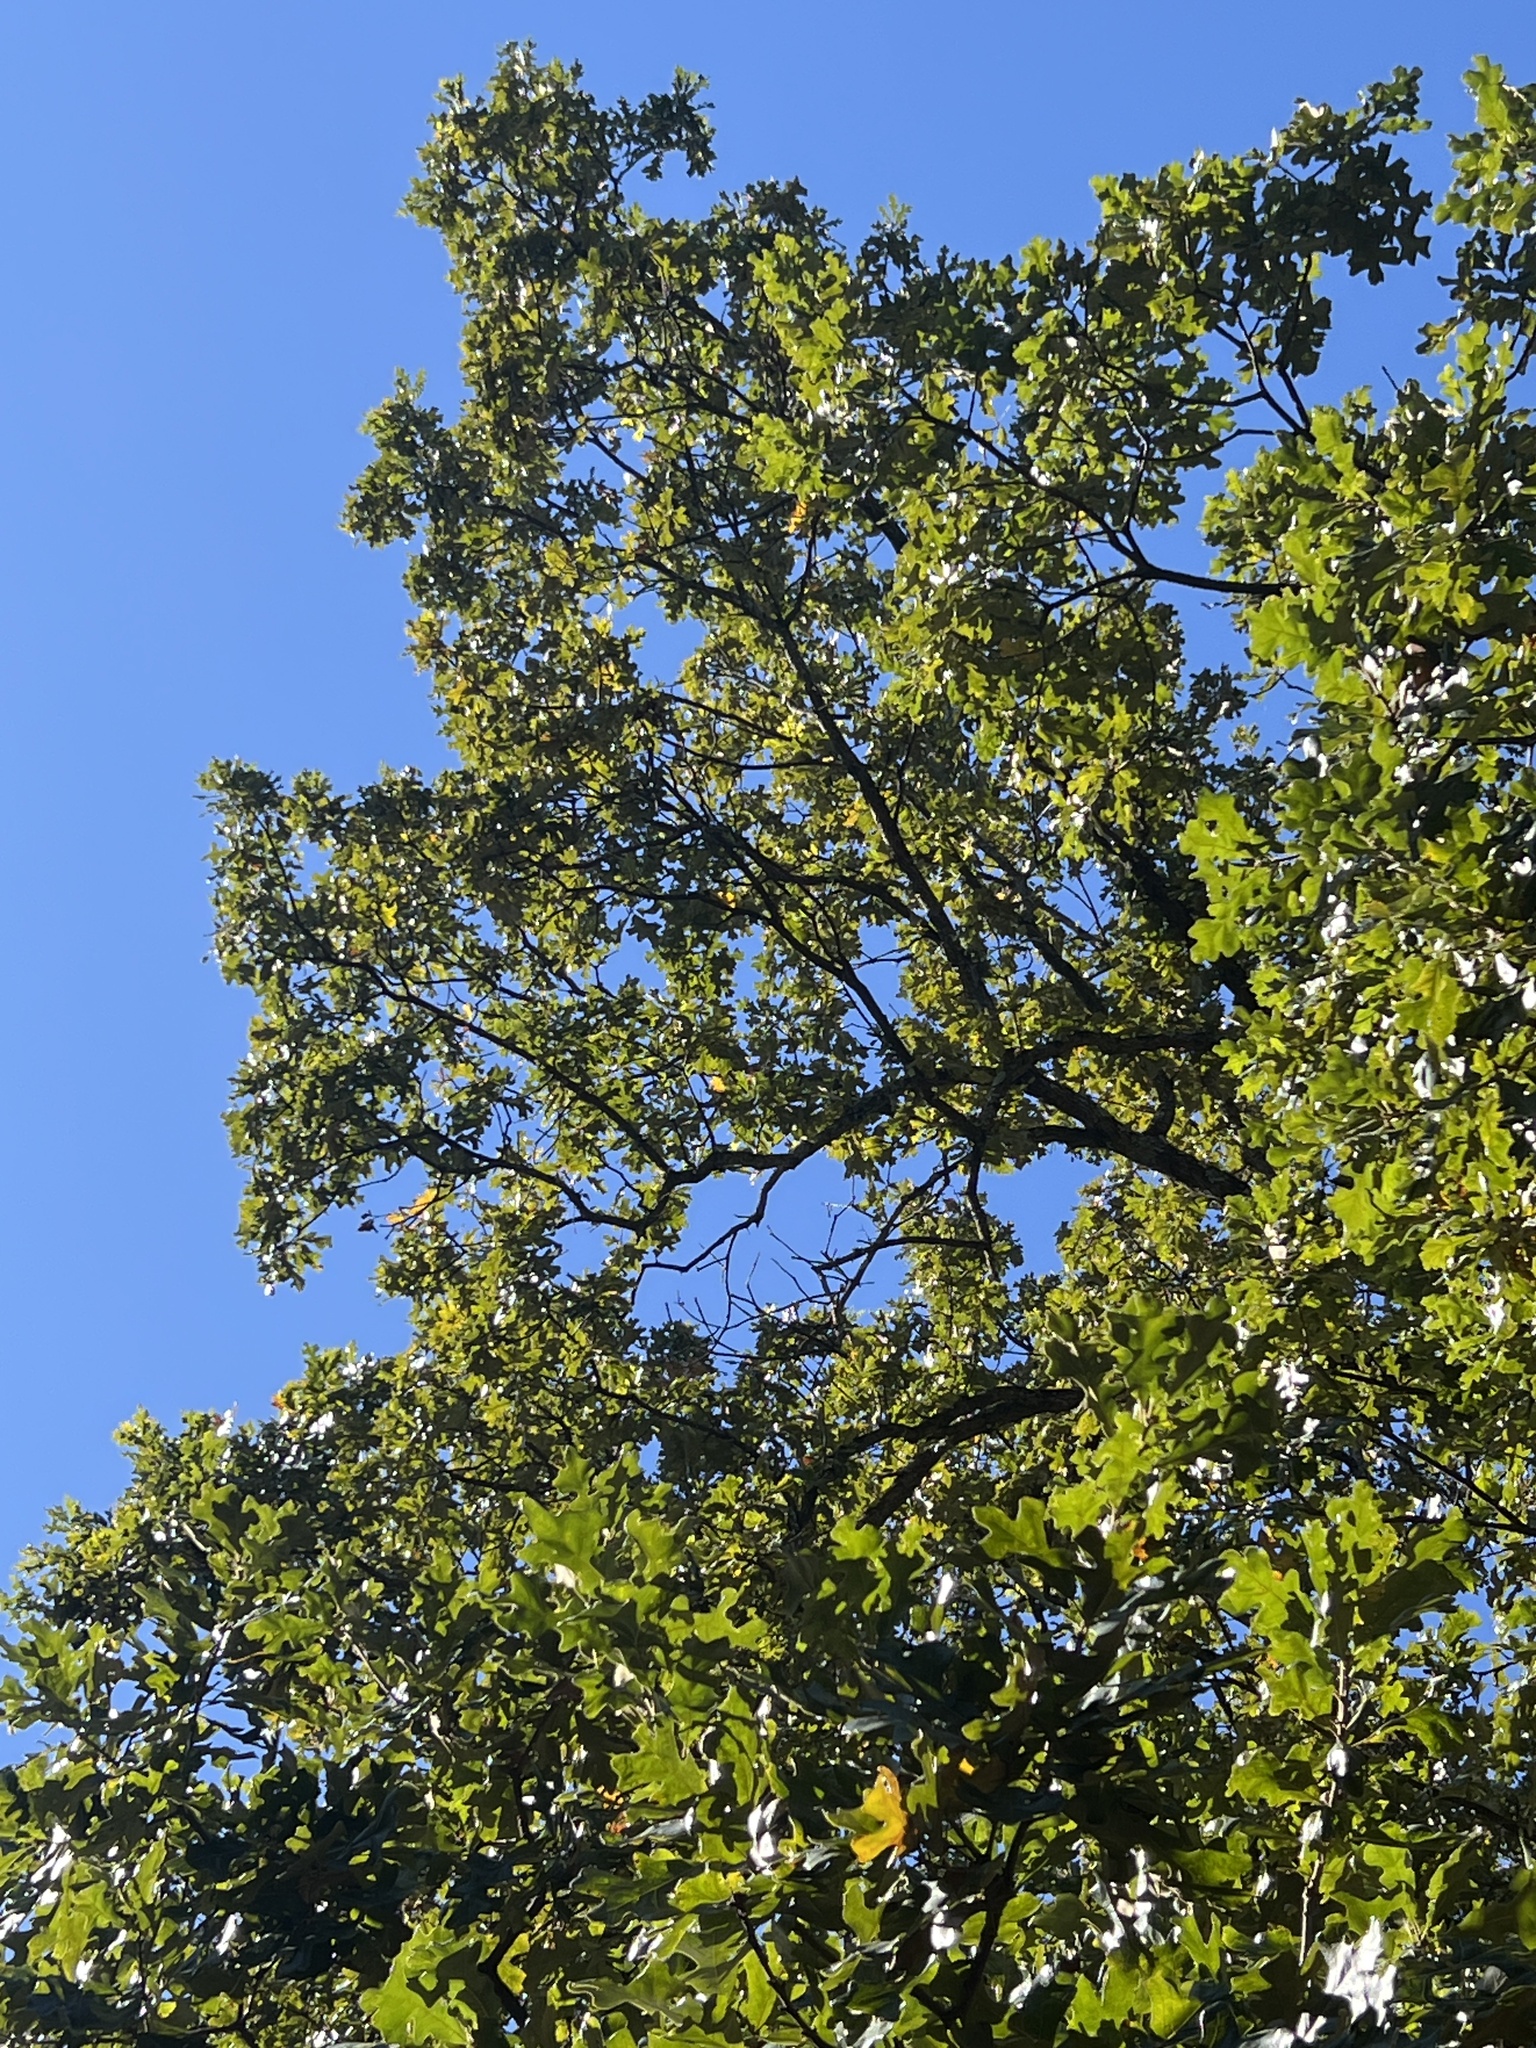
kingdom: Plantae
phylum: Tracheophyta
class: Magnoliopsida
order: Fagales
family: Fagaceae
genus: Quercus
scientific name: Quercus stellata
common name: Post oak
